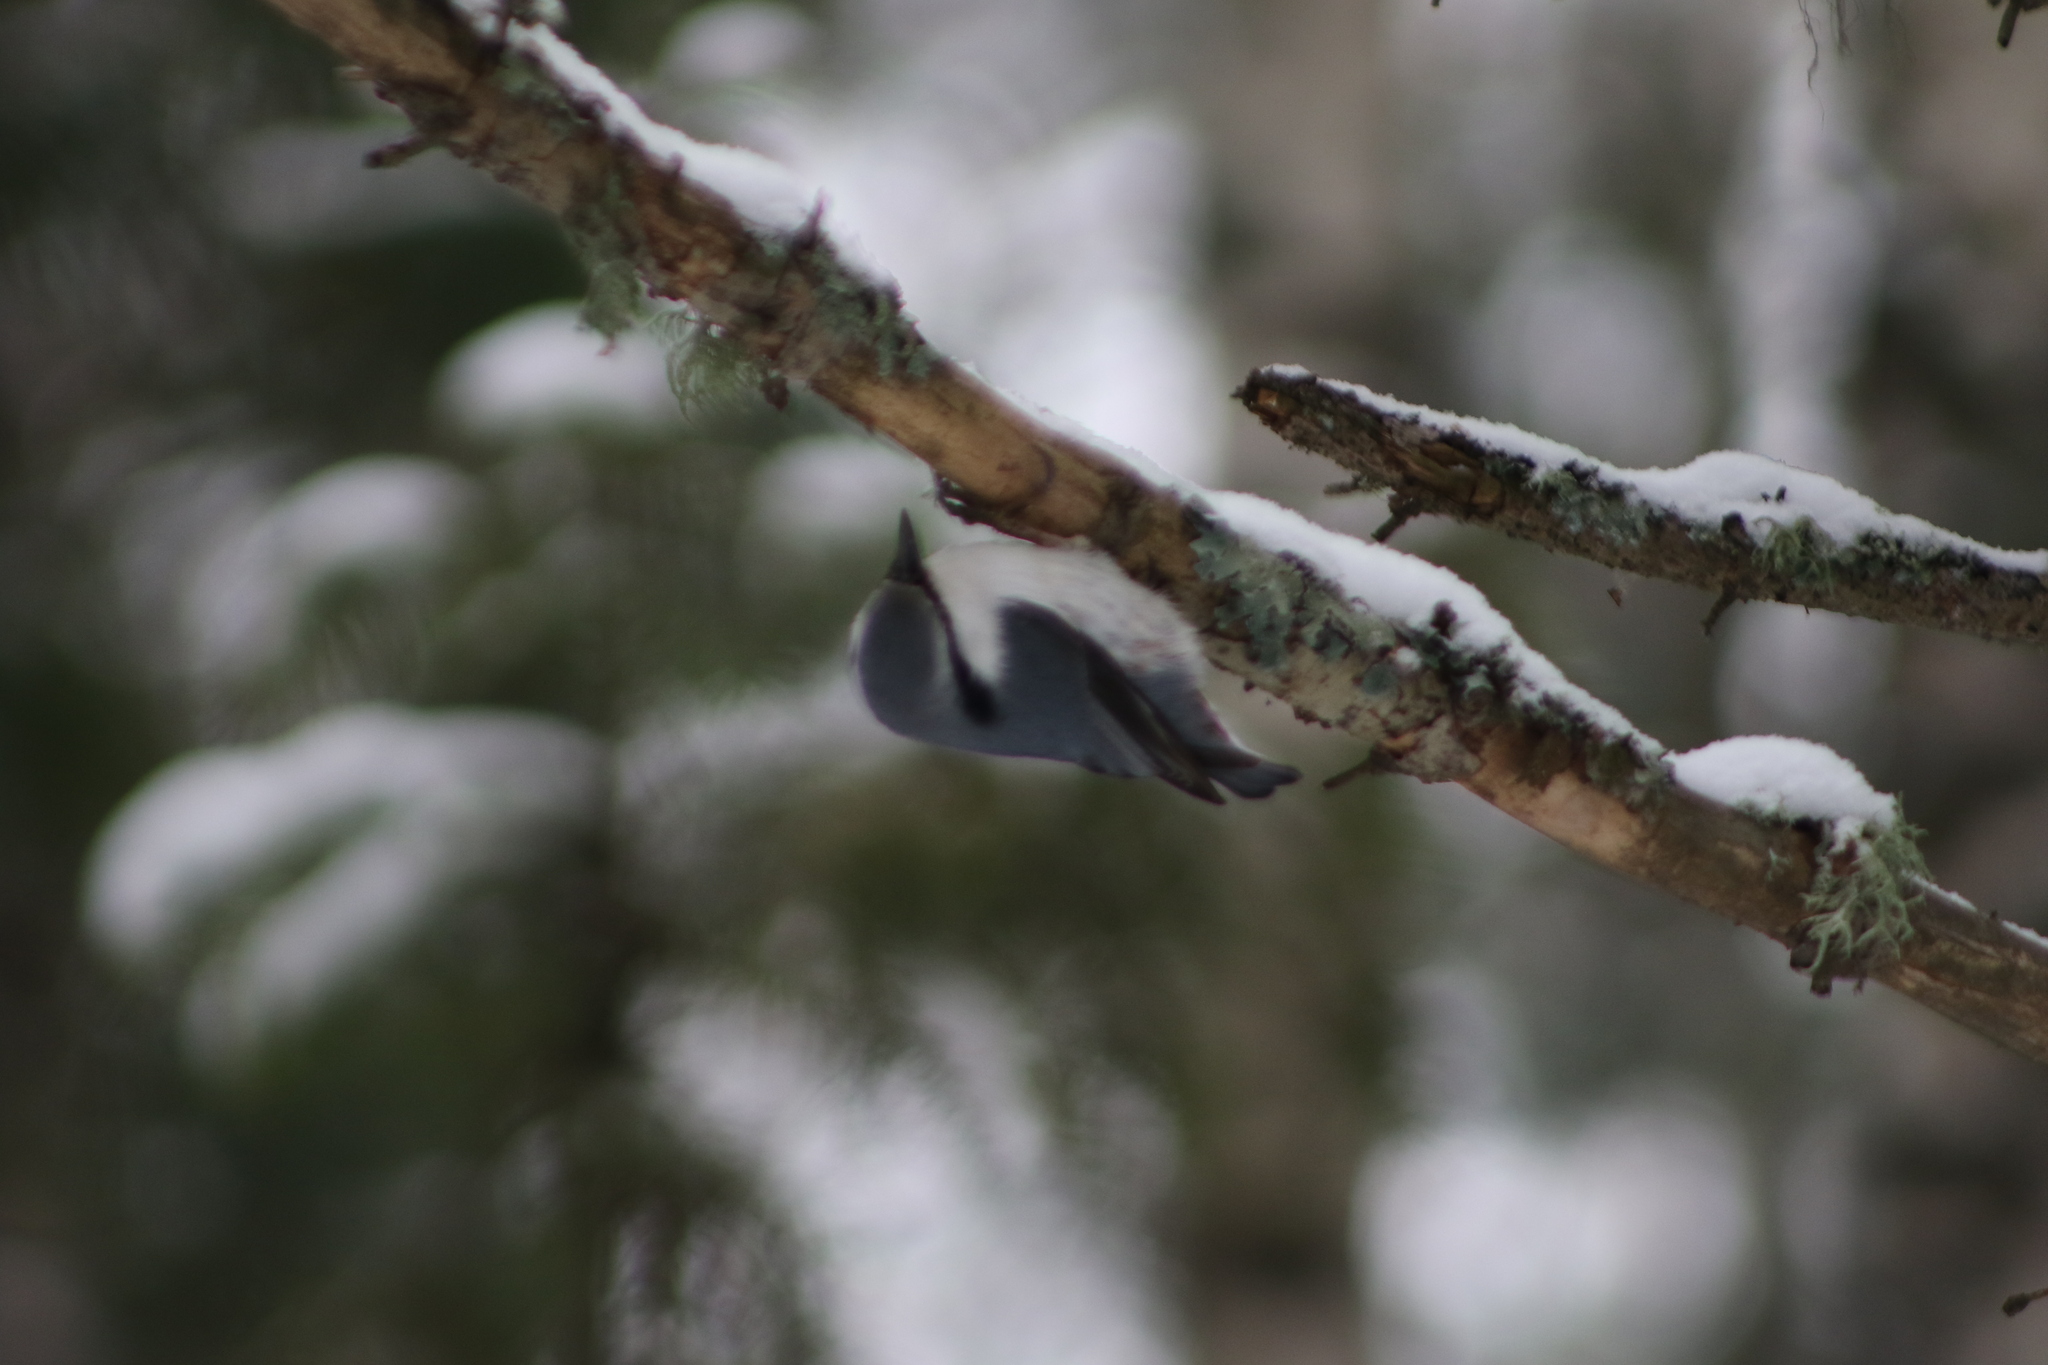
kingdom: Animalia
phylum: Chordata
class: Aves
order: Passeriformes
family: Sittidae
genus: Sitta
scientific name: Sitta europaea
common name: Eurasian nuthatch
